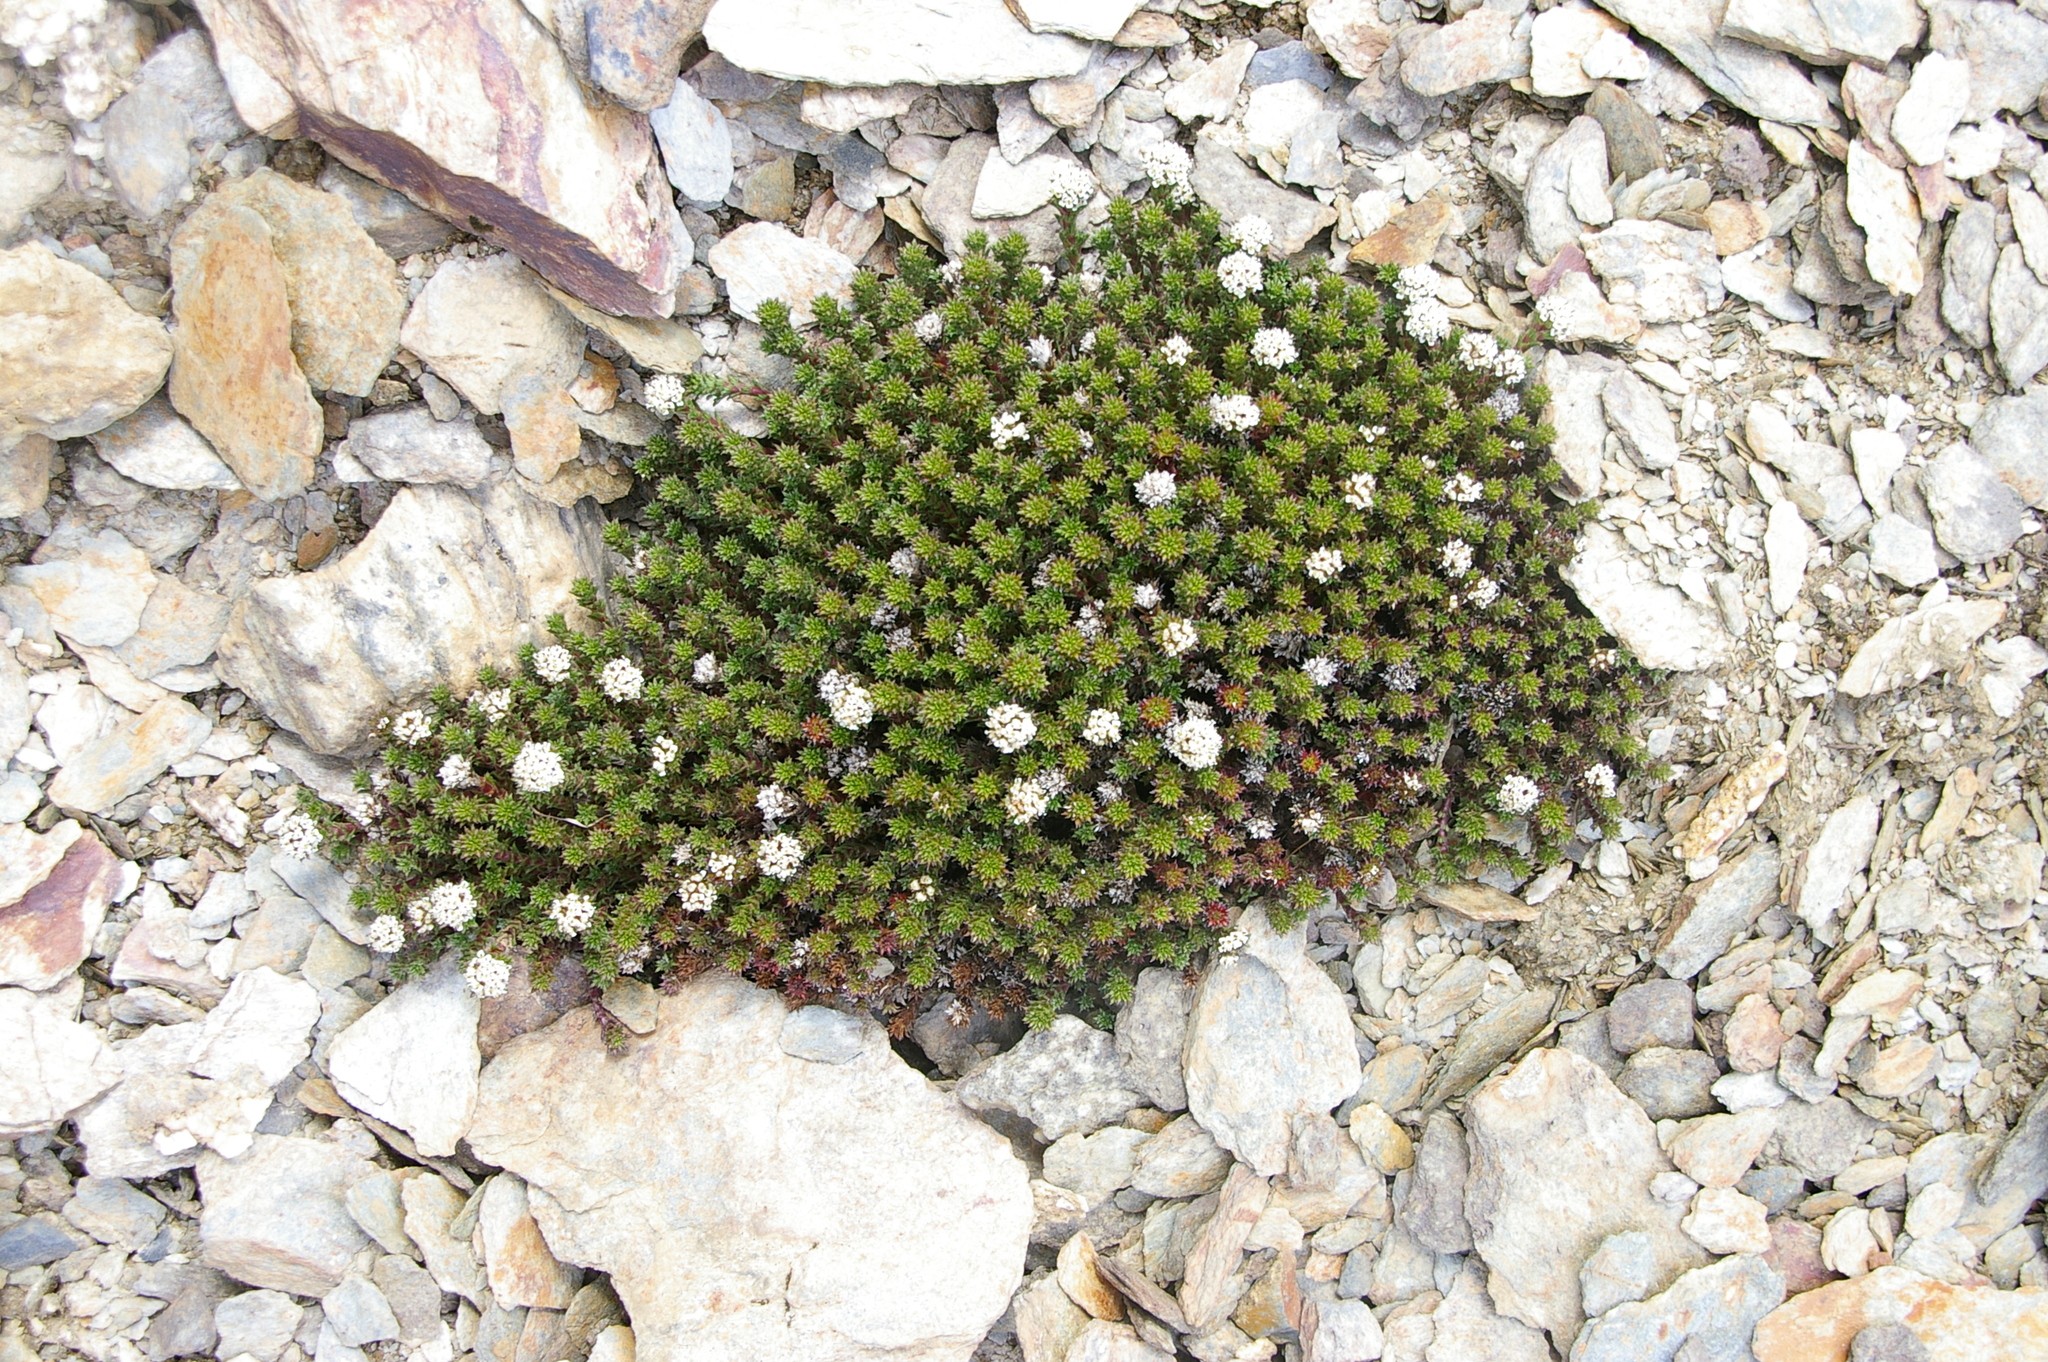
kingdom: Plantae
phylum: Tracheophyta
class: Magnoliopsida
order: Asterales
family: Asteraceae
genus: Nassauvia
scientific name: Nassauvia pygmaea
